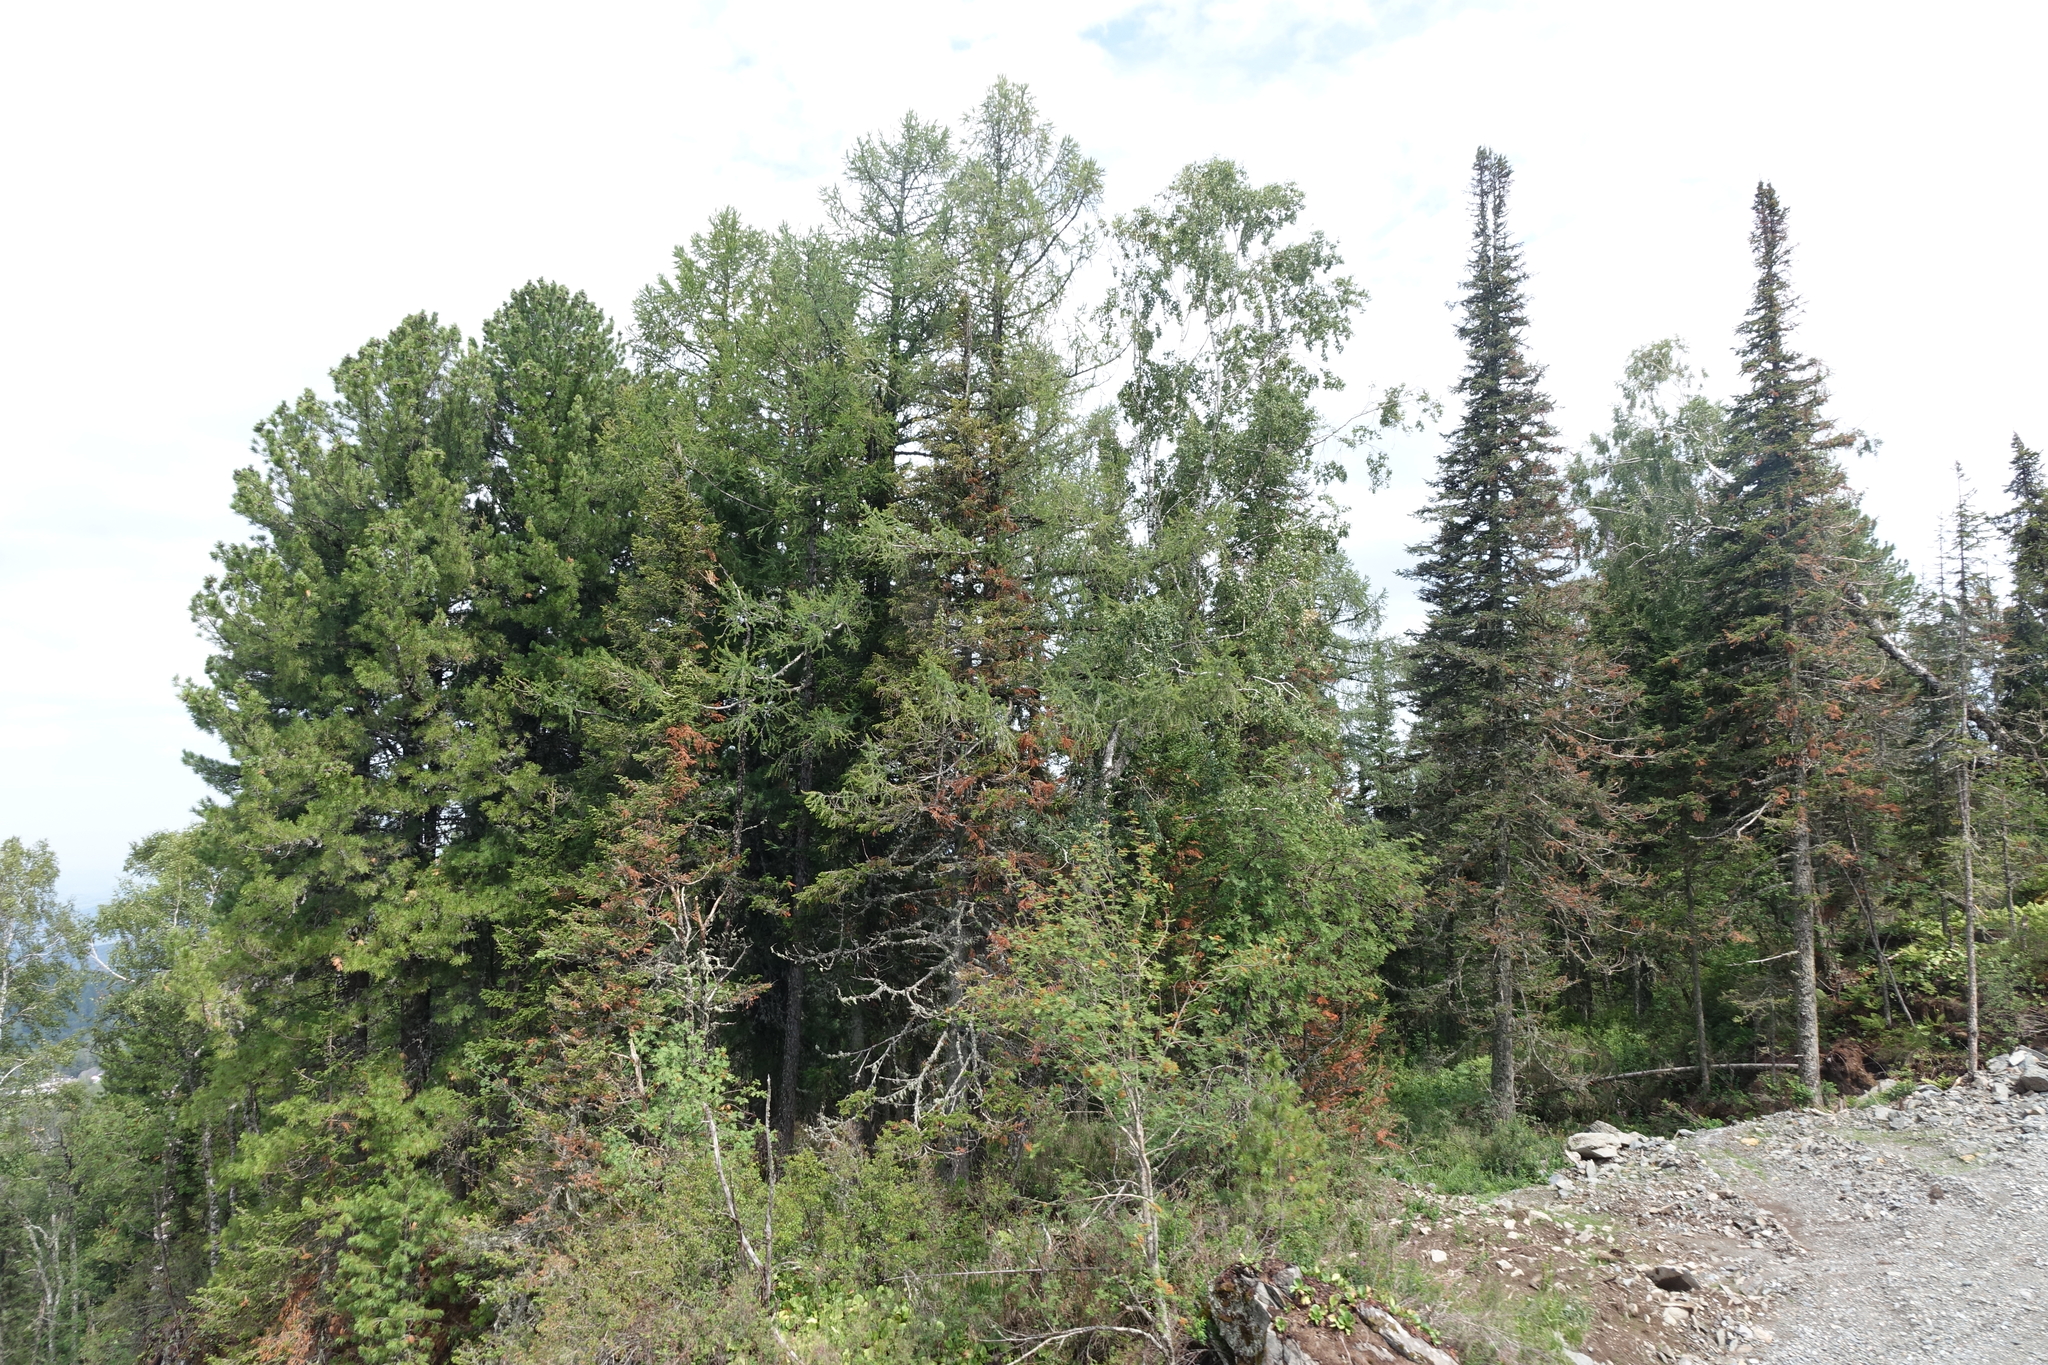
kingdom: Plantae
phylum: Tracheophyta
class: Pinopsida
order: Pinales
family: Pinaceae
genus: Abies
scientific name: Abies sibirica
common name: Siberian fir
